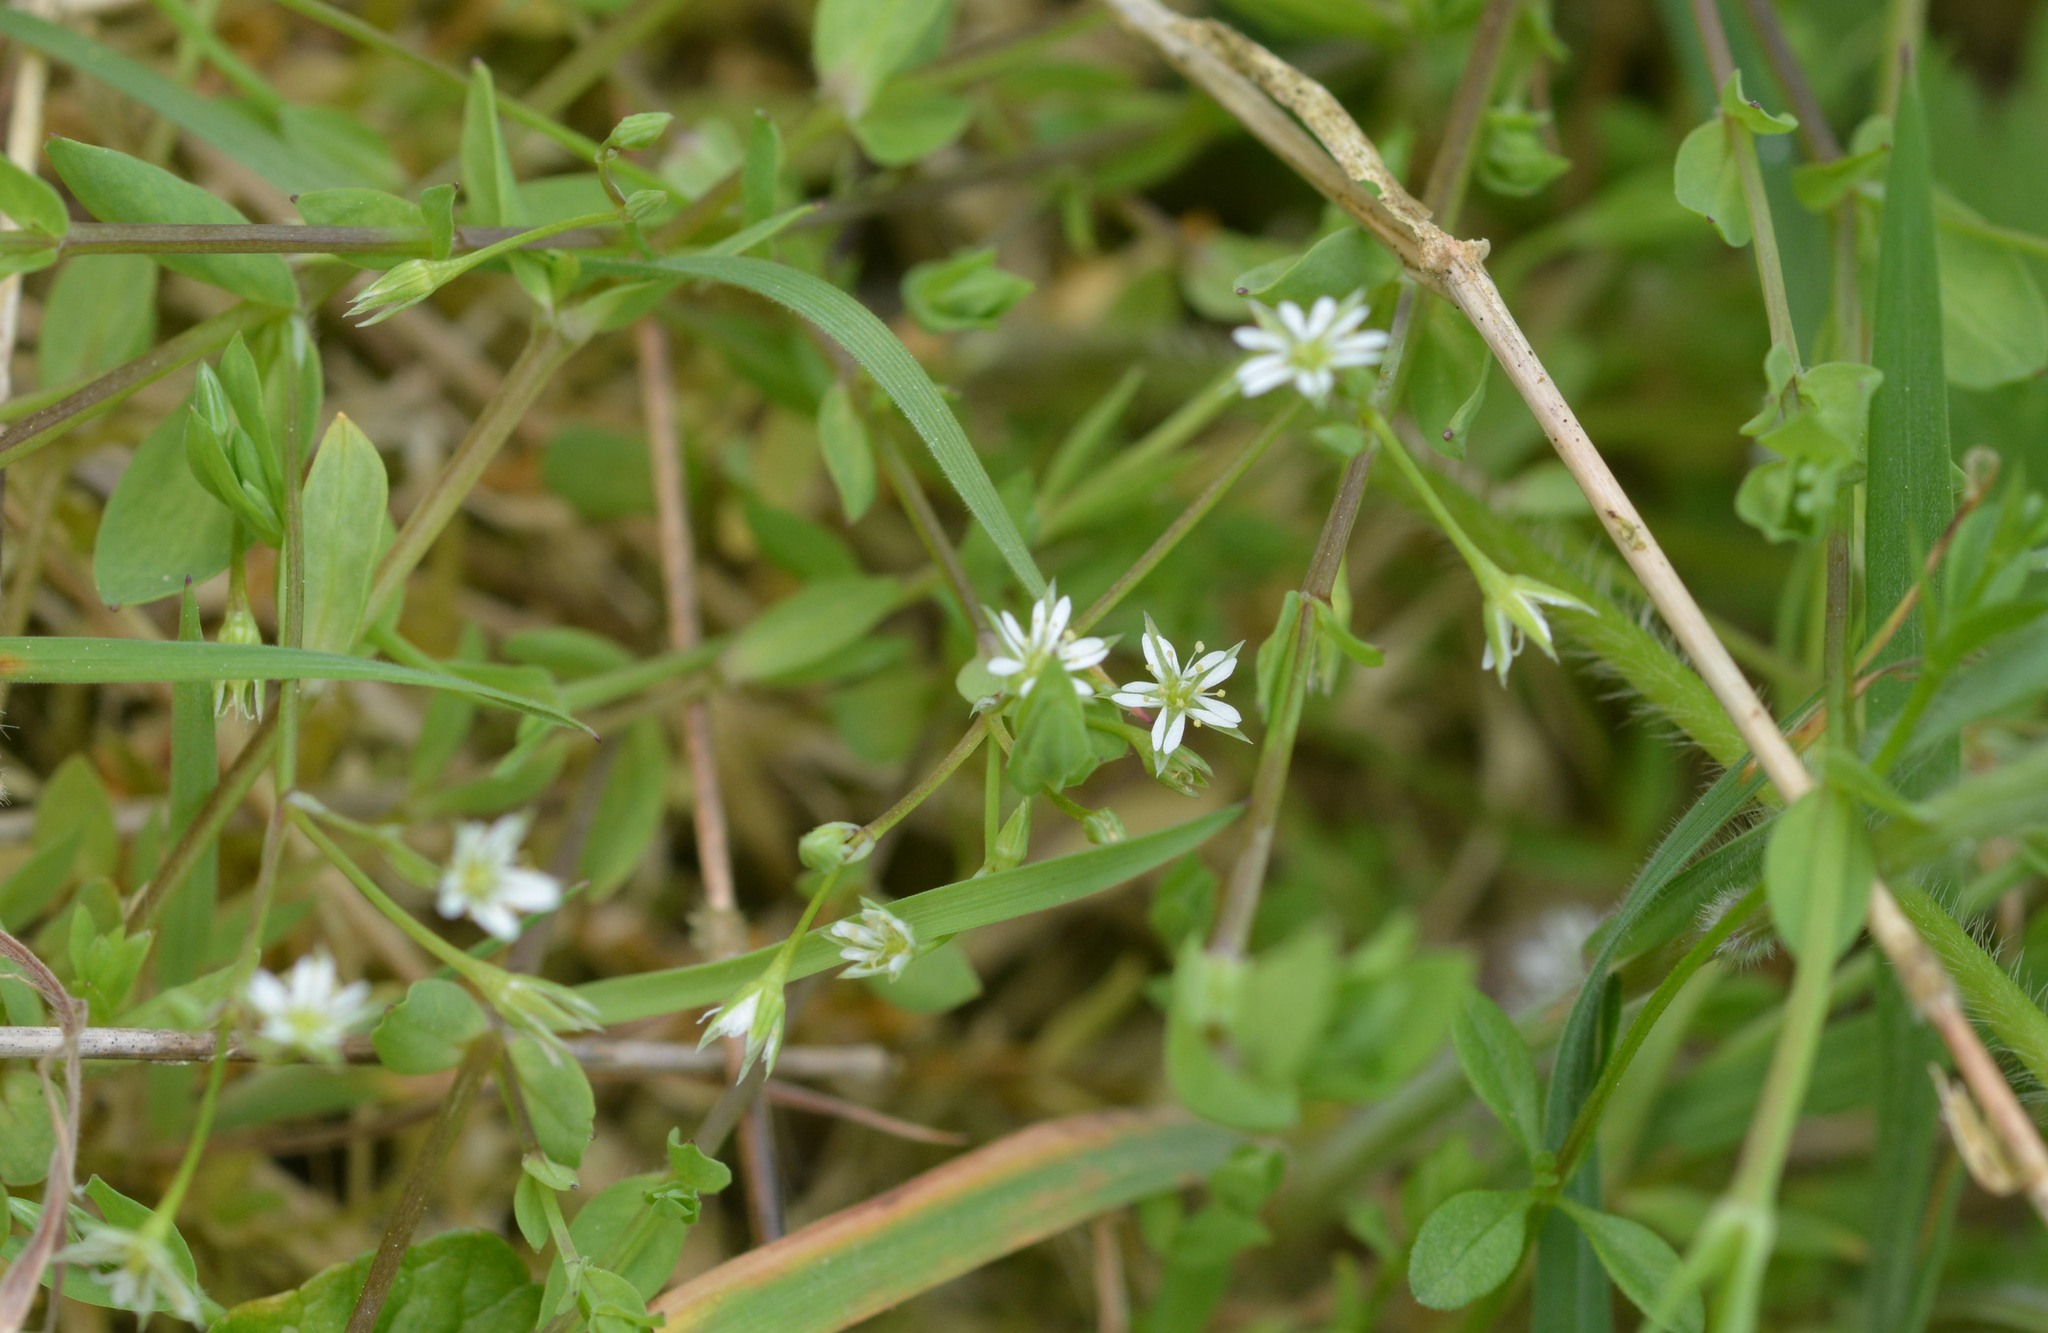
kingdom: Plantae
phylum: Tracheophyta
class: Magnoliopsida
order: Caryophyllales
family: Caryophyllaceae
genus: Stellaria
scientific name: Stellaria alsine
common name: Bog stitchwort
